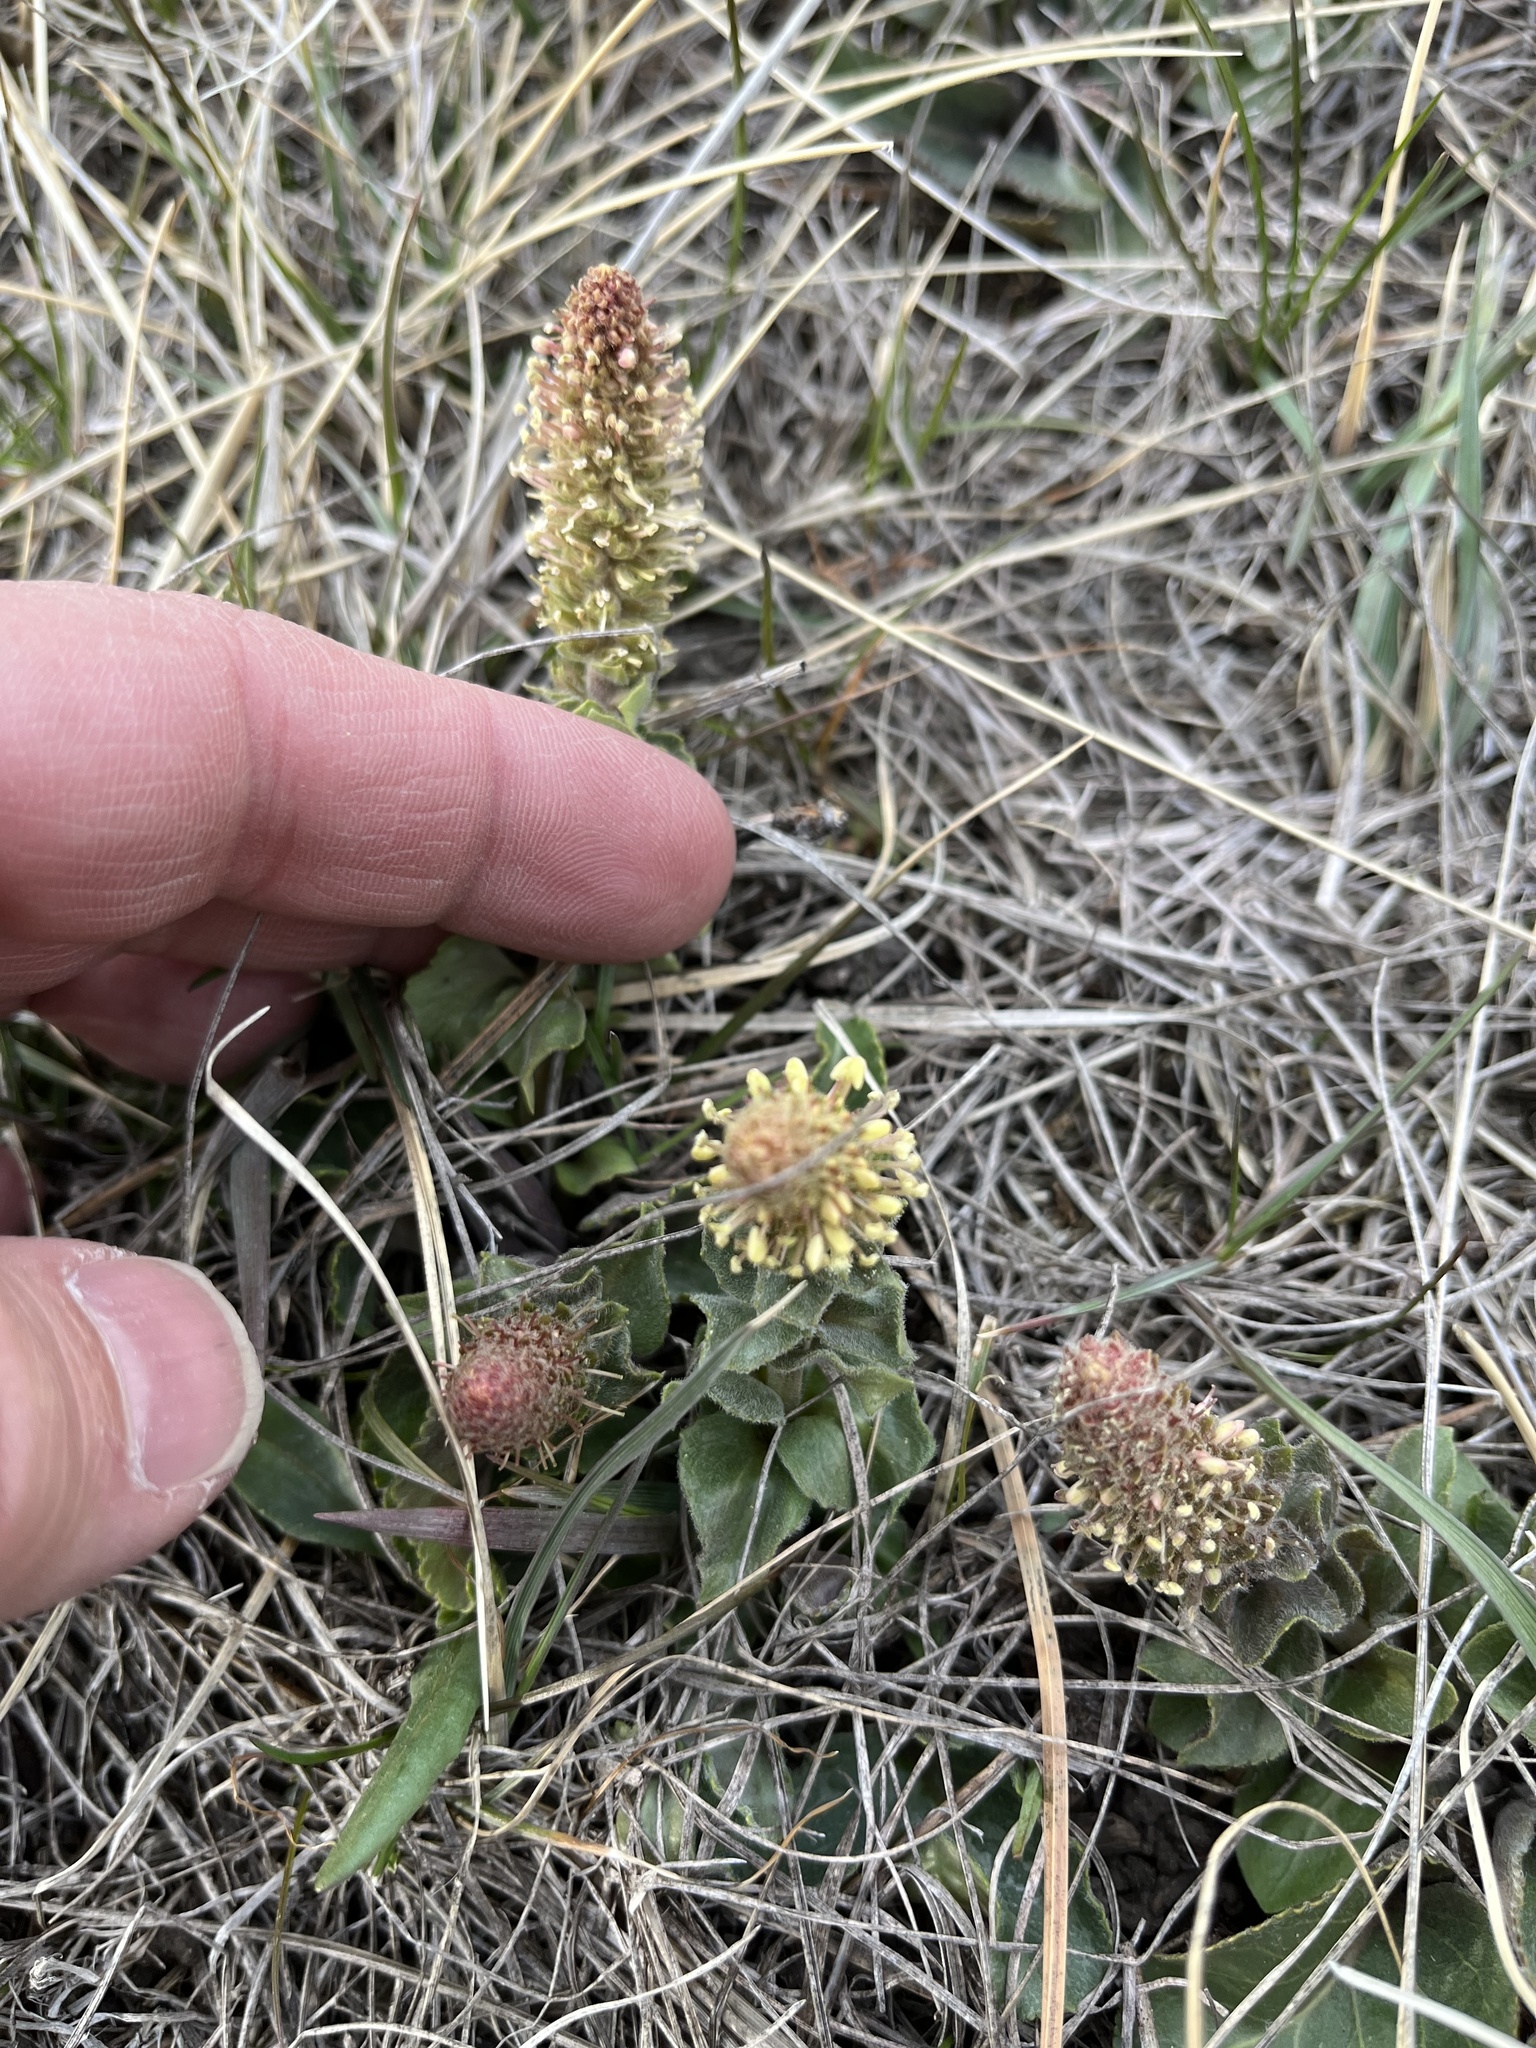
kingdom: Plantae
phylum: Tracheophyta
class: Magnoliopsida
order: Lamiales
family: Plantaginaceae
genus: Synthyris
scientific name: Synthyris wyomingensis
